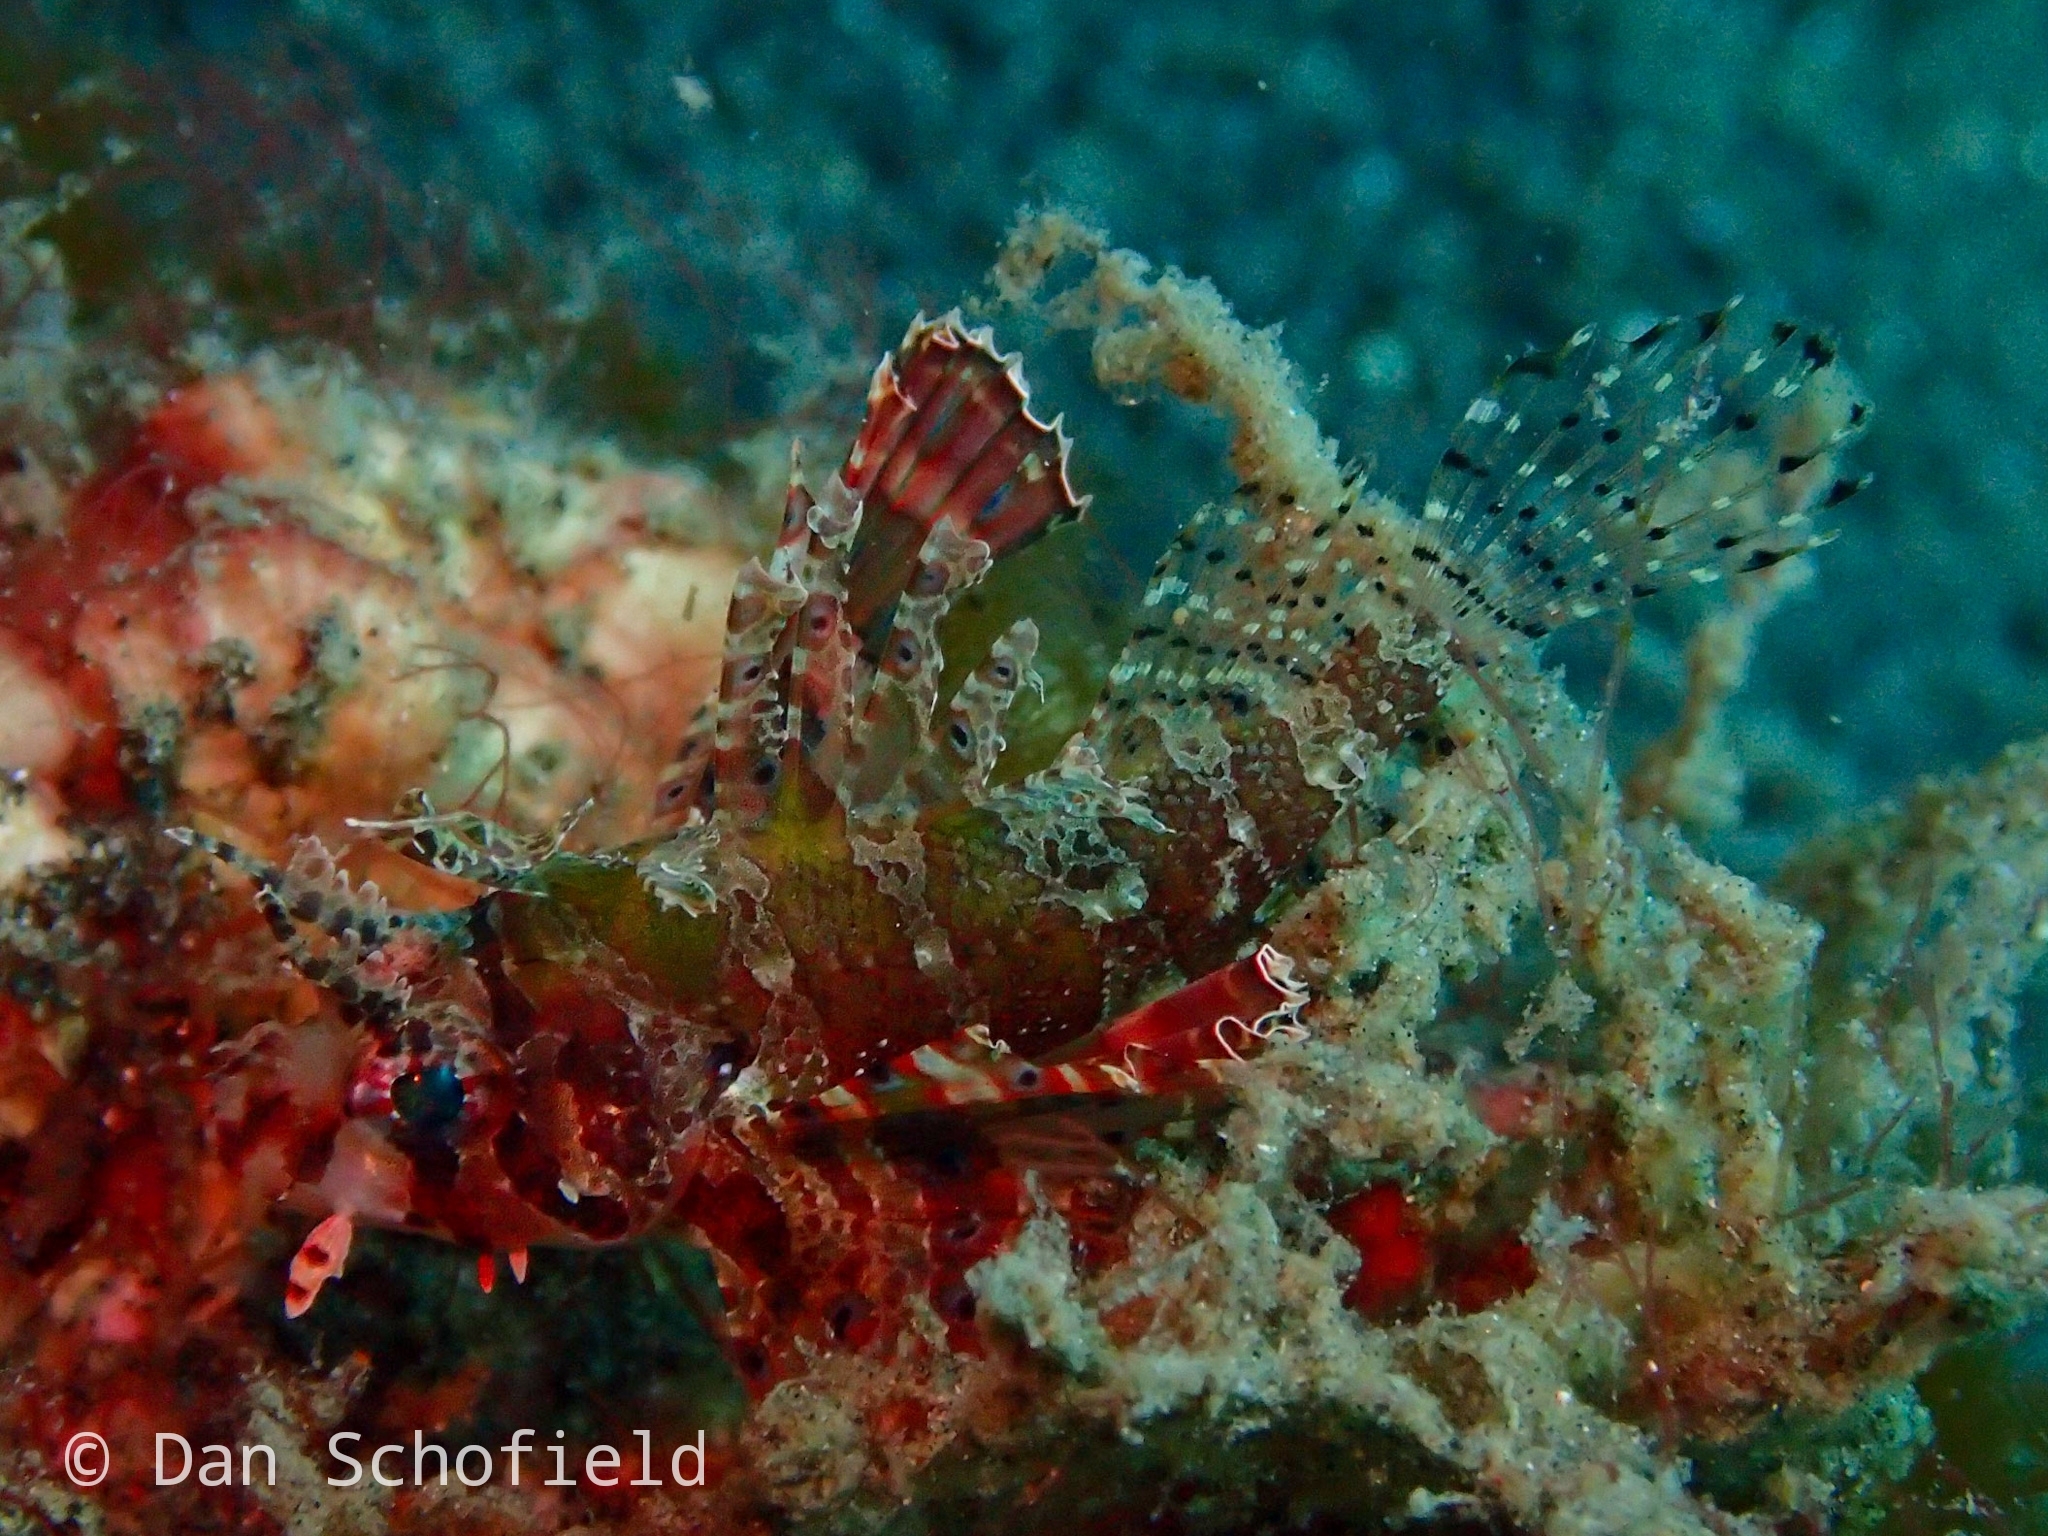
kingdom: Animalia
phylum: Chordata
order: Scorpaeniformes
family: Scorpaenidae
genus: Dendrochirus
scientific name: Dendrochirus brachypterus
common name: Shortfin turkeyfish
